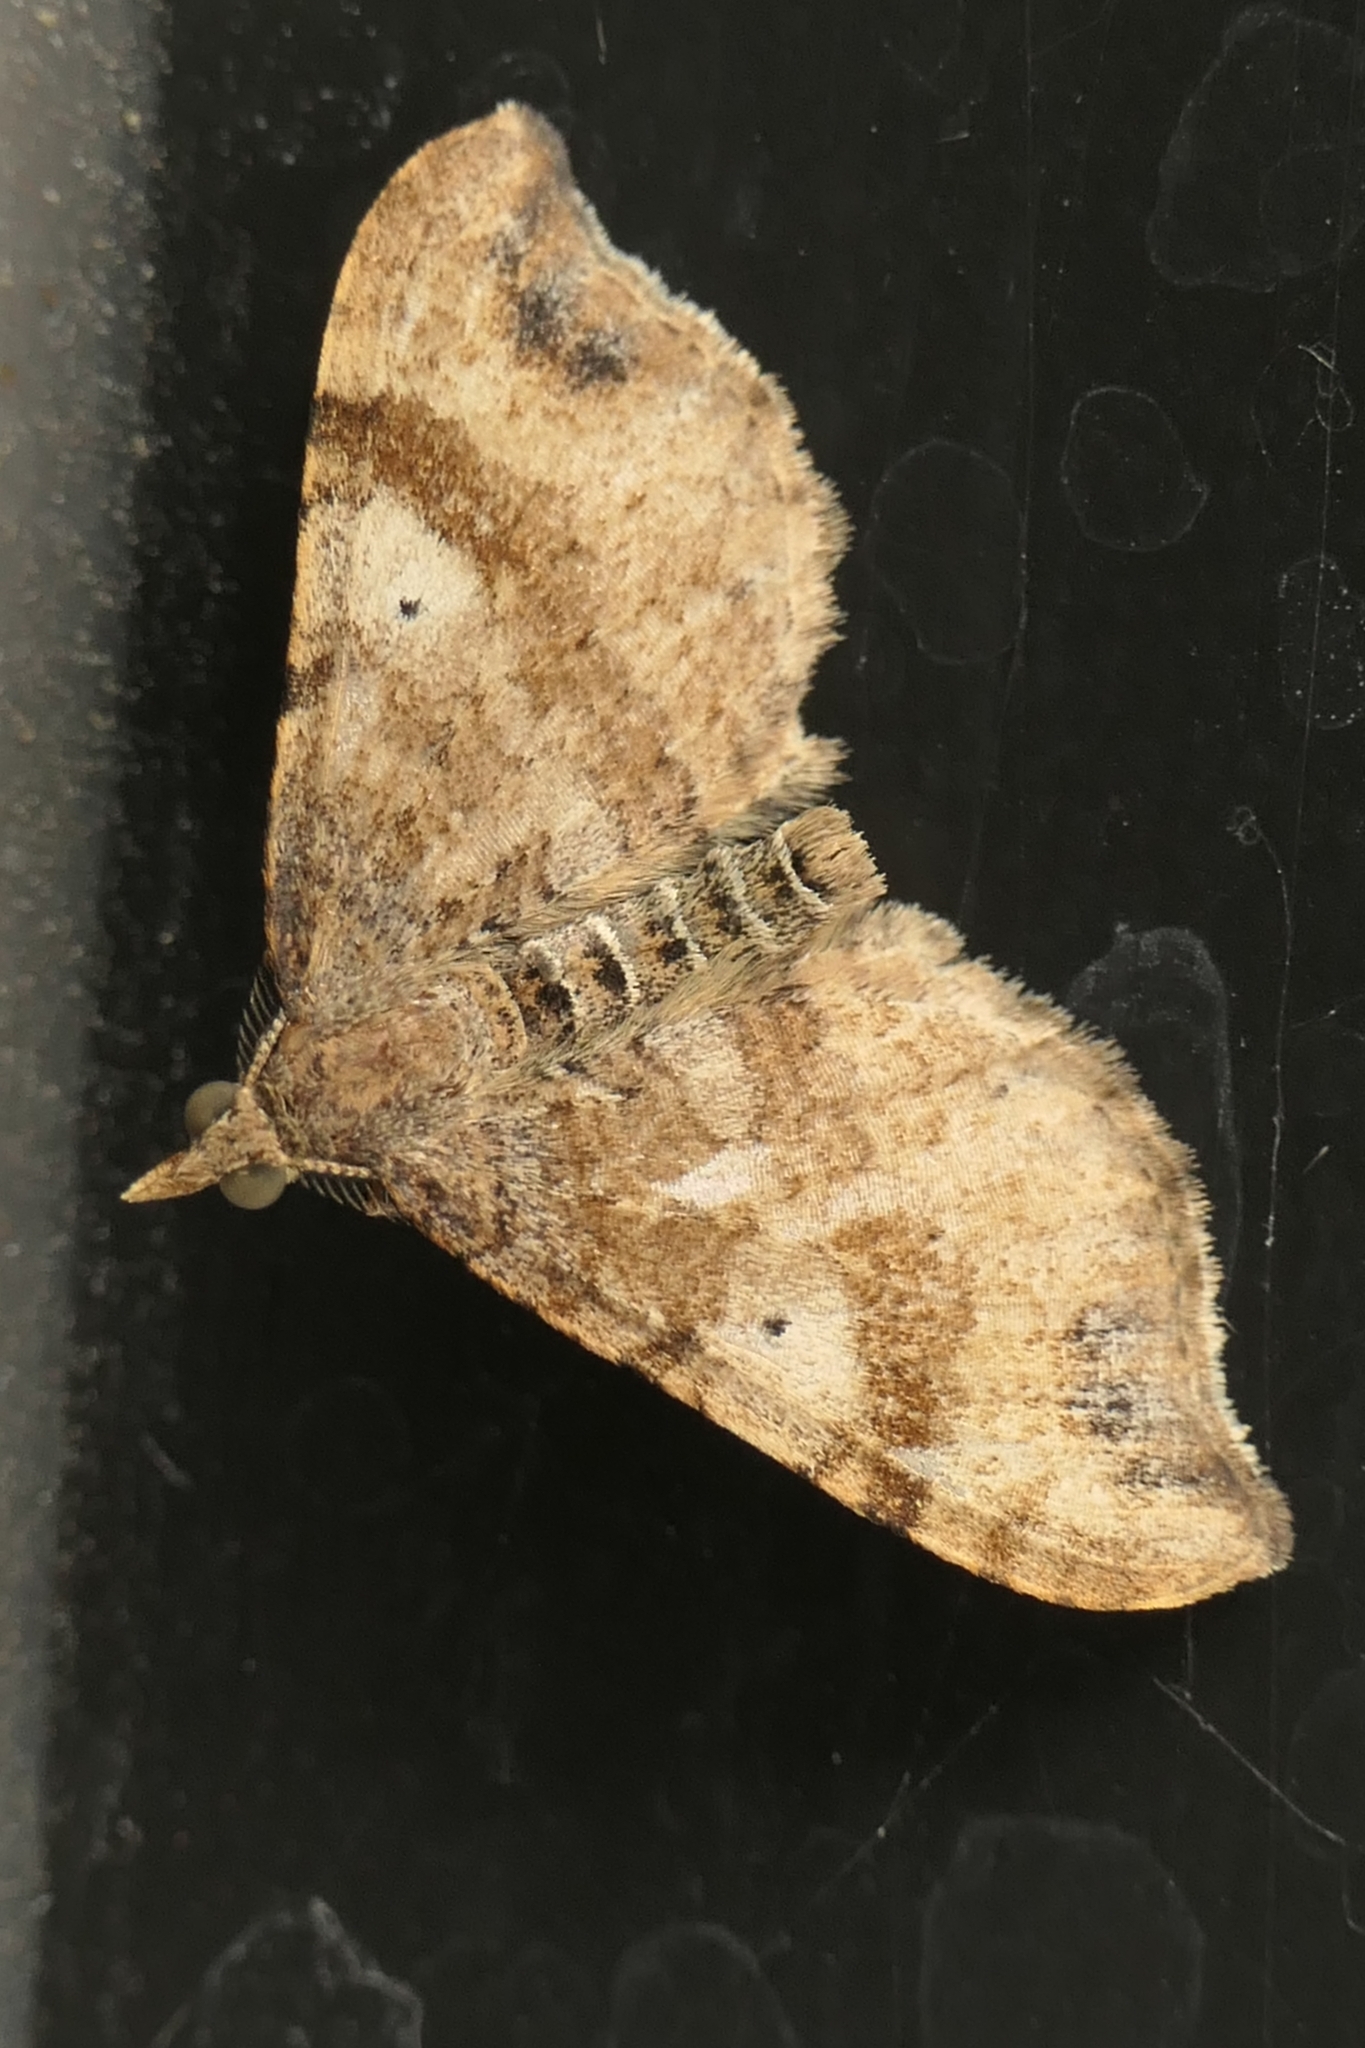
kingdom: Animalia
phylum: Arthropoda
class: Insecta
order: Lepidoptera
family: Geometridae
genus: Homodotis
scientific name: Homodotis megaspilata
